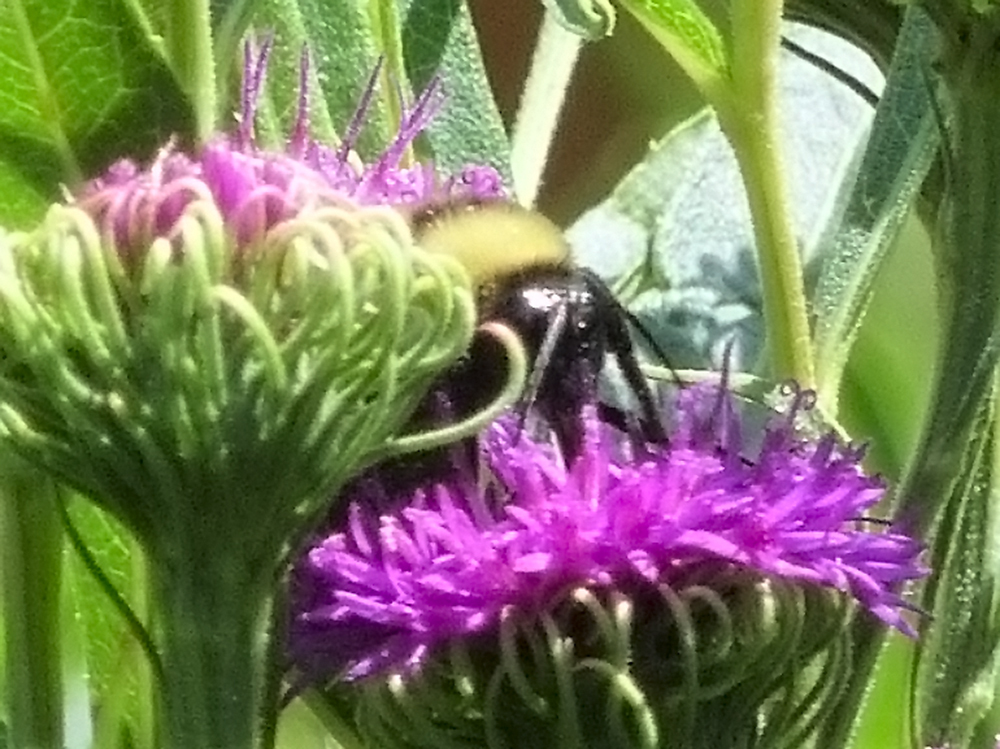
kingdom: Animalia
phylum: Arthropoda
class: Insecta
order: Hymenoptera
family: Apidae
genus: Bombus
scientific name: Bombus pensylvanicus
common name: Bumble bee
